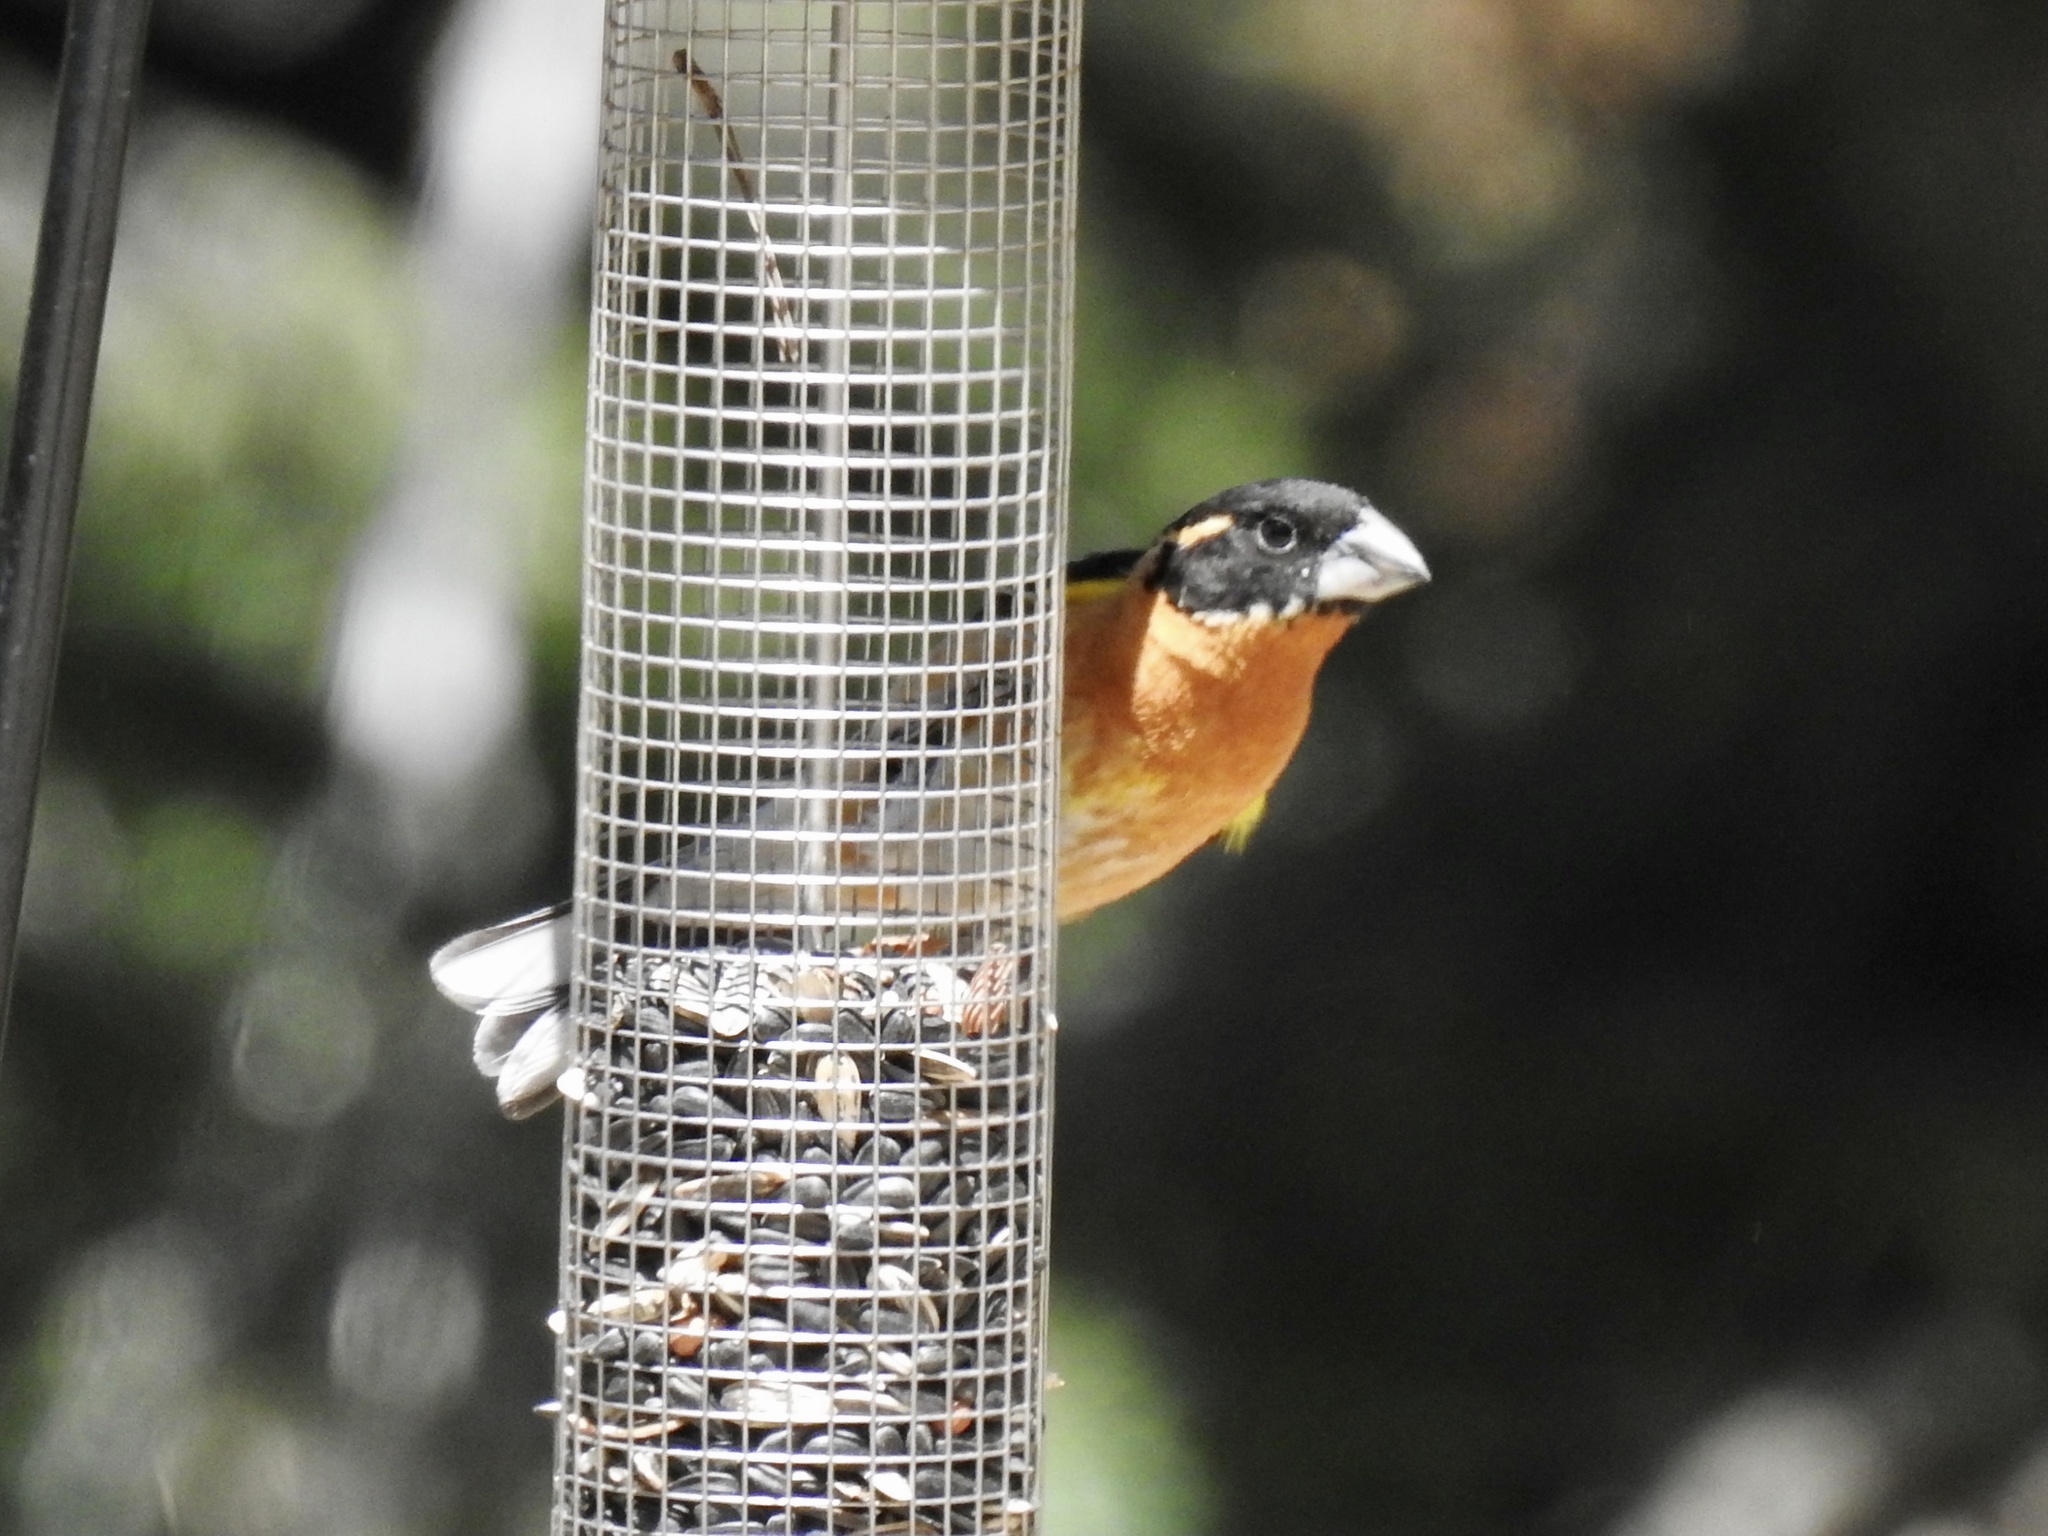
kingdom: Animalia
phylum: Chordata
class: Aves
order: Passeriformes
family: Cardinalidae
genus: Pheucticus
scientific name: Pheucticus melanocephalus
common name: Black-headed grosbeak
